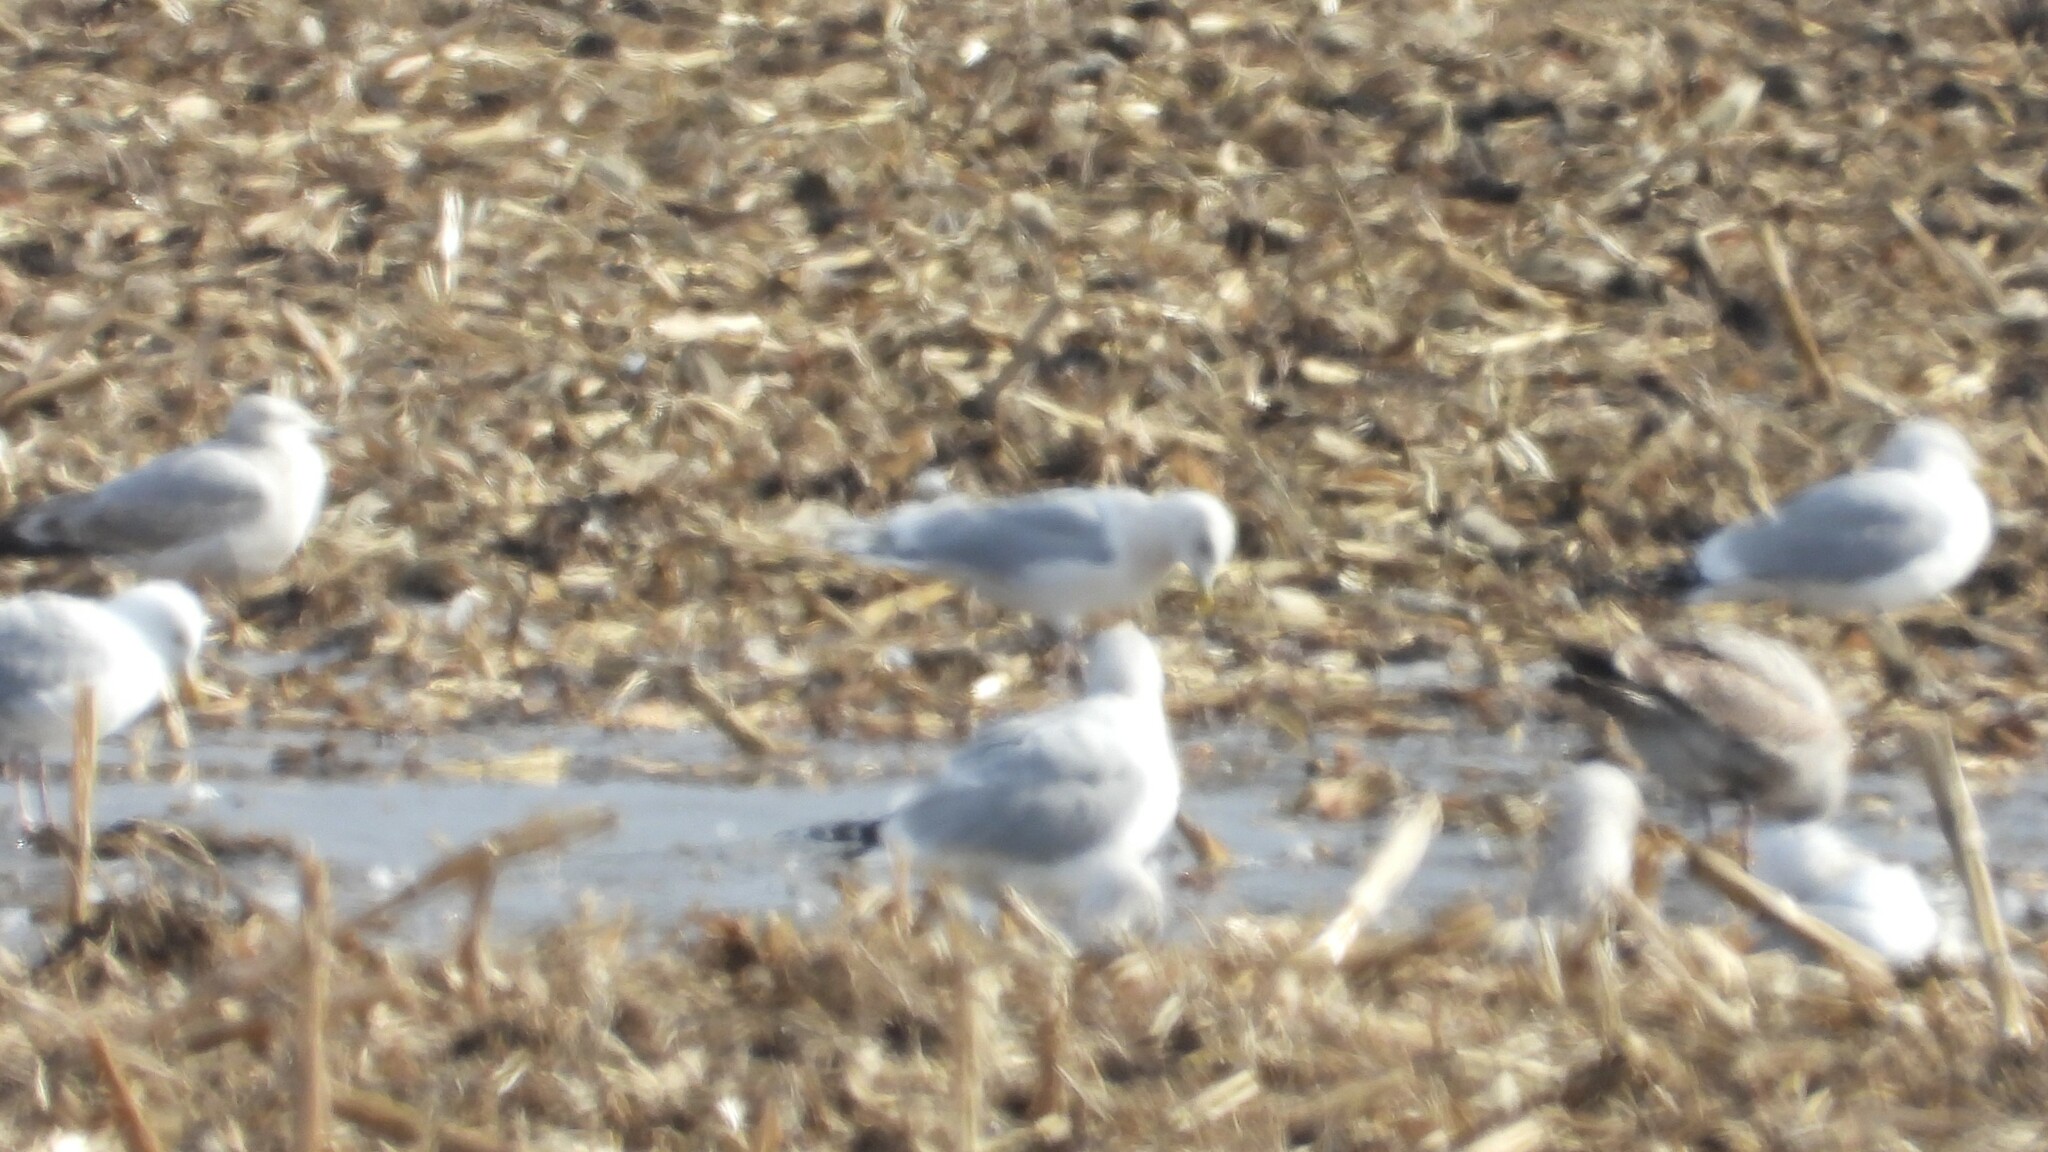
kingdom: Animalia
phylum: Chordata
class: Aves
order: Charadriiformes
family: Laridae
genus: Larus
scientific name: Larus glaucoides
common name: Iceland gull
